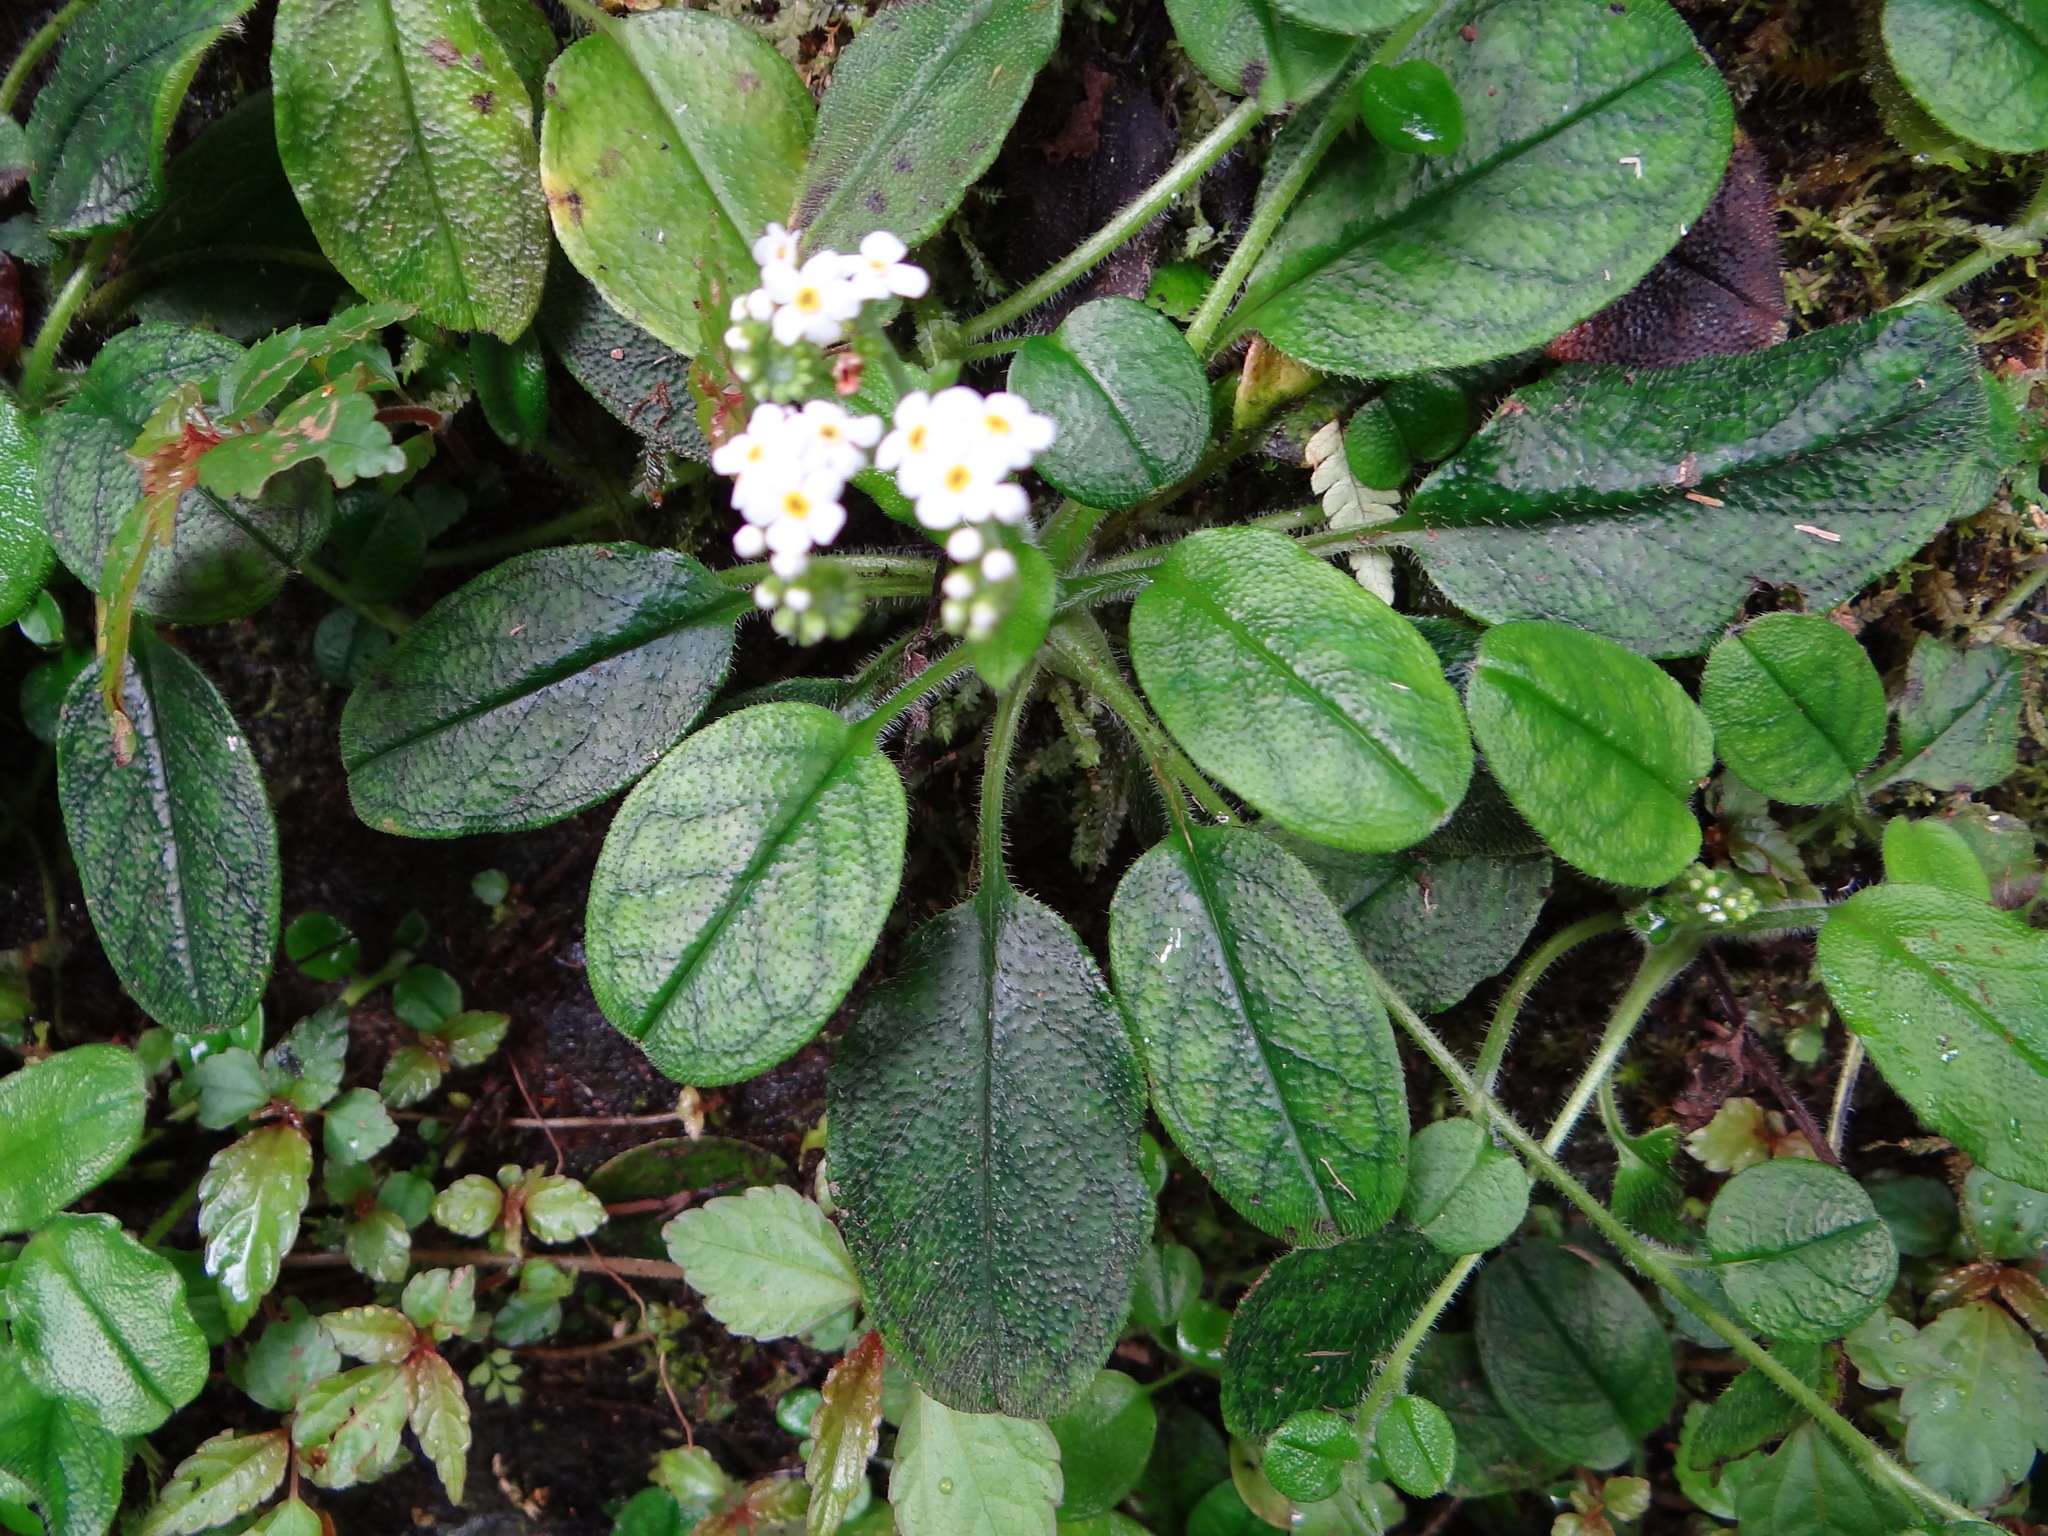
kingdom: Plantae
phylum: Tracheophyta
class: Magnoliopsida
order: Boraginales
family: Boraginaceae
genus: Trigonotis
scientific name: Trigonotis formosana
